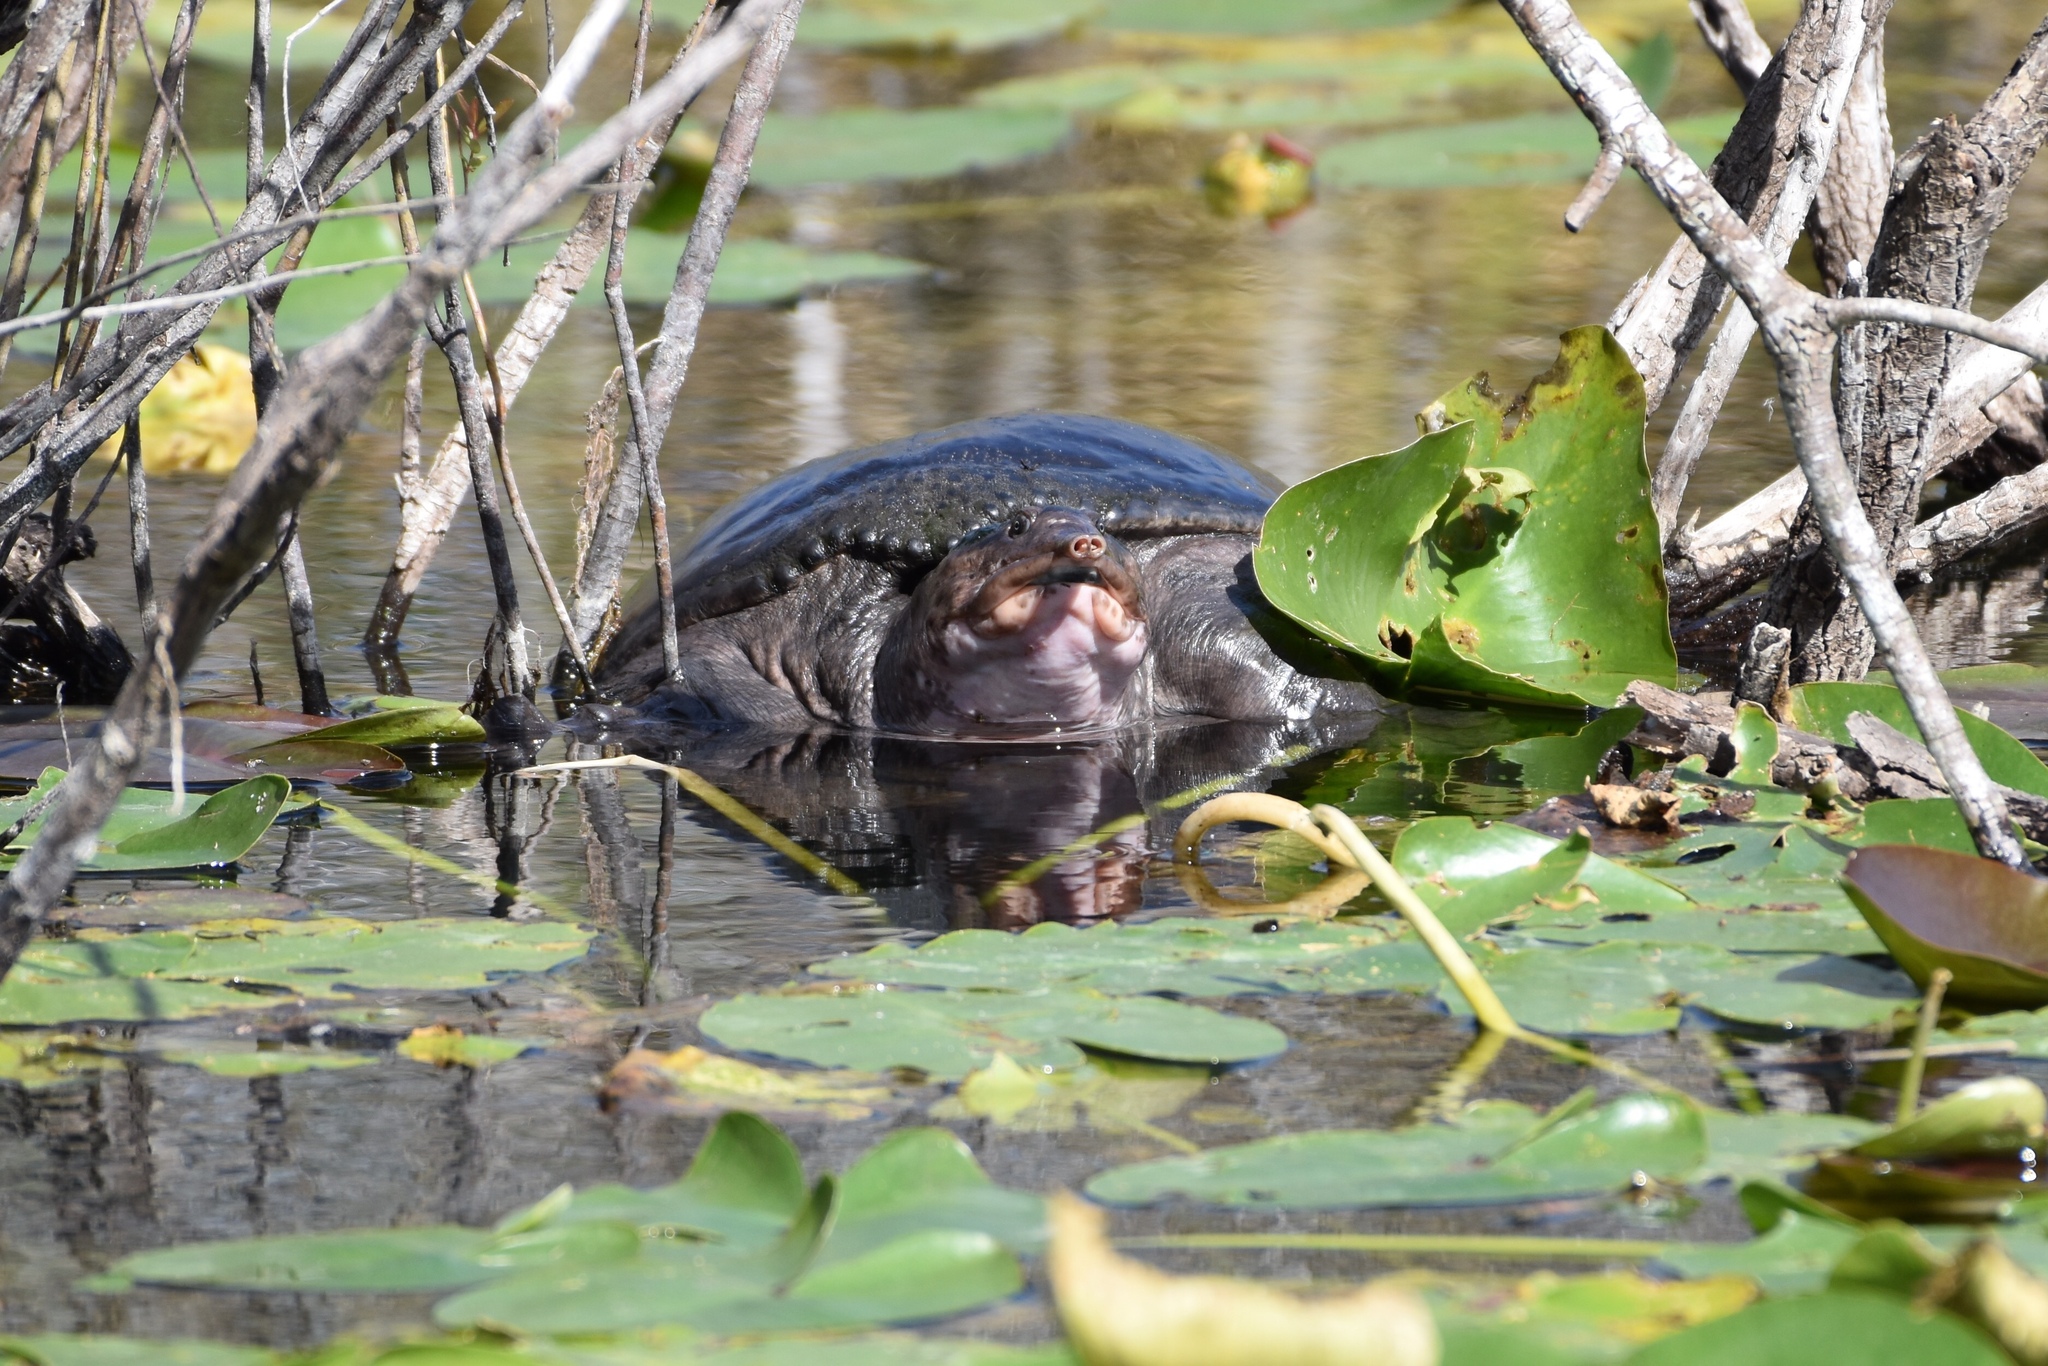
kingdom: Animalia
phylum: Chordata
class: Testudines
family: Trionychidae
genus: Apalone
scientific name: Apalone ferox
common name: Florida softshell turtle
